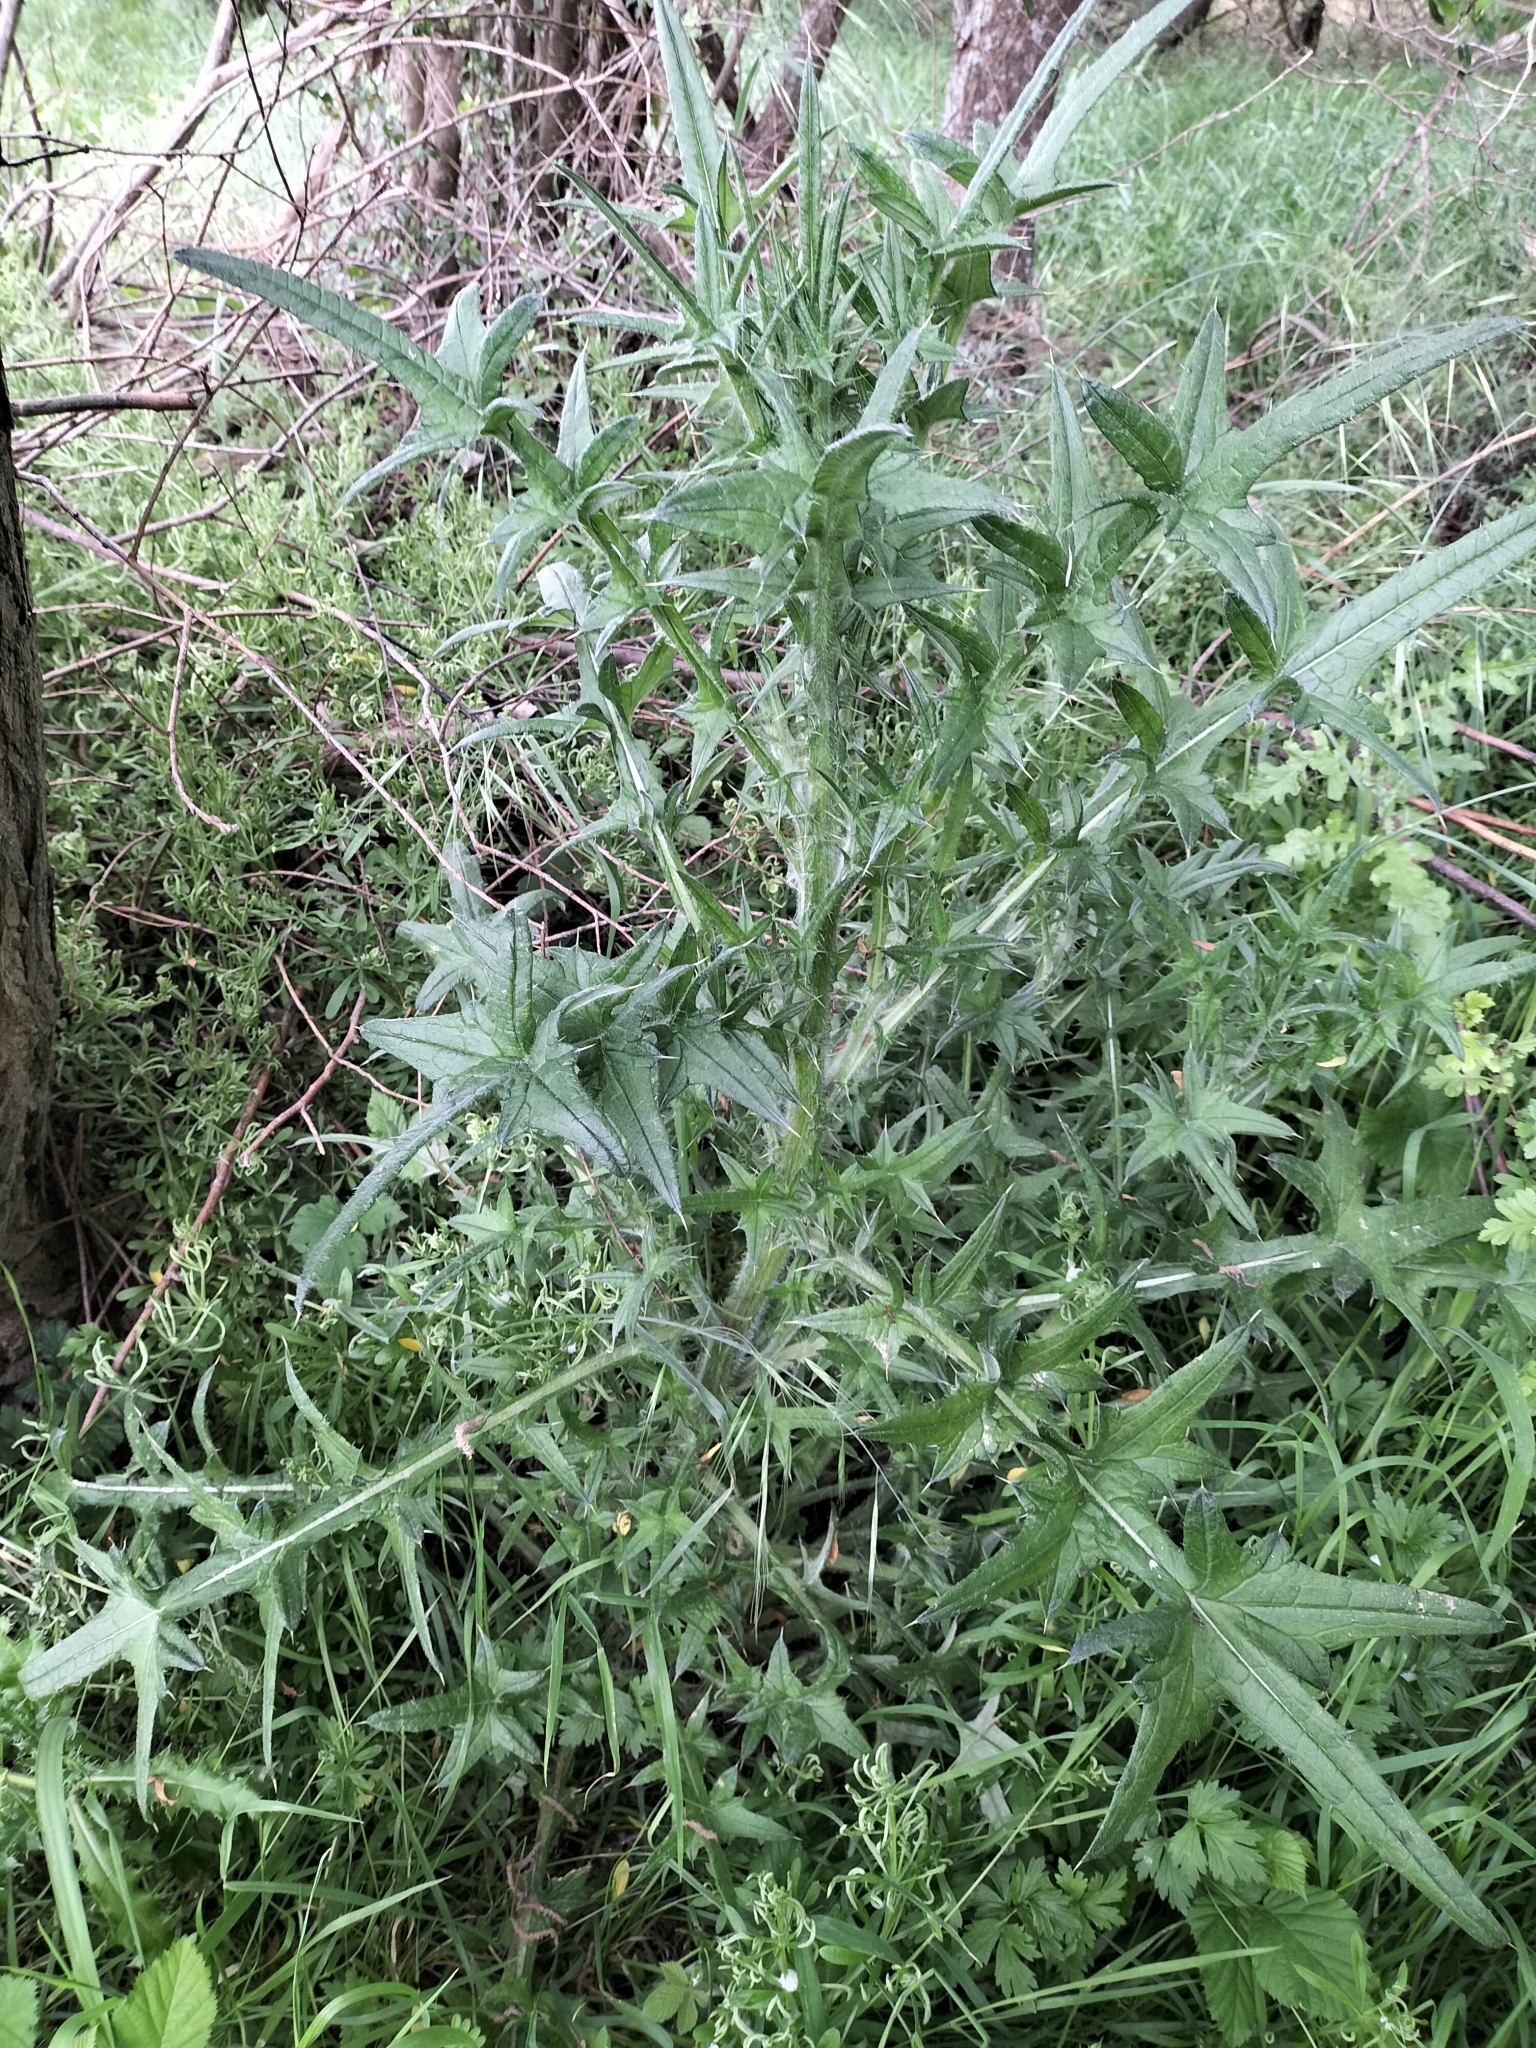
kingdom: Plantae
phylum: Tracheophyta
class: Magnoliopsida
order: Asterales
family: Asteraceae
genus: Cirsium
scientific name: Cirsium vulgare
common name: Bull thistle
